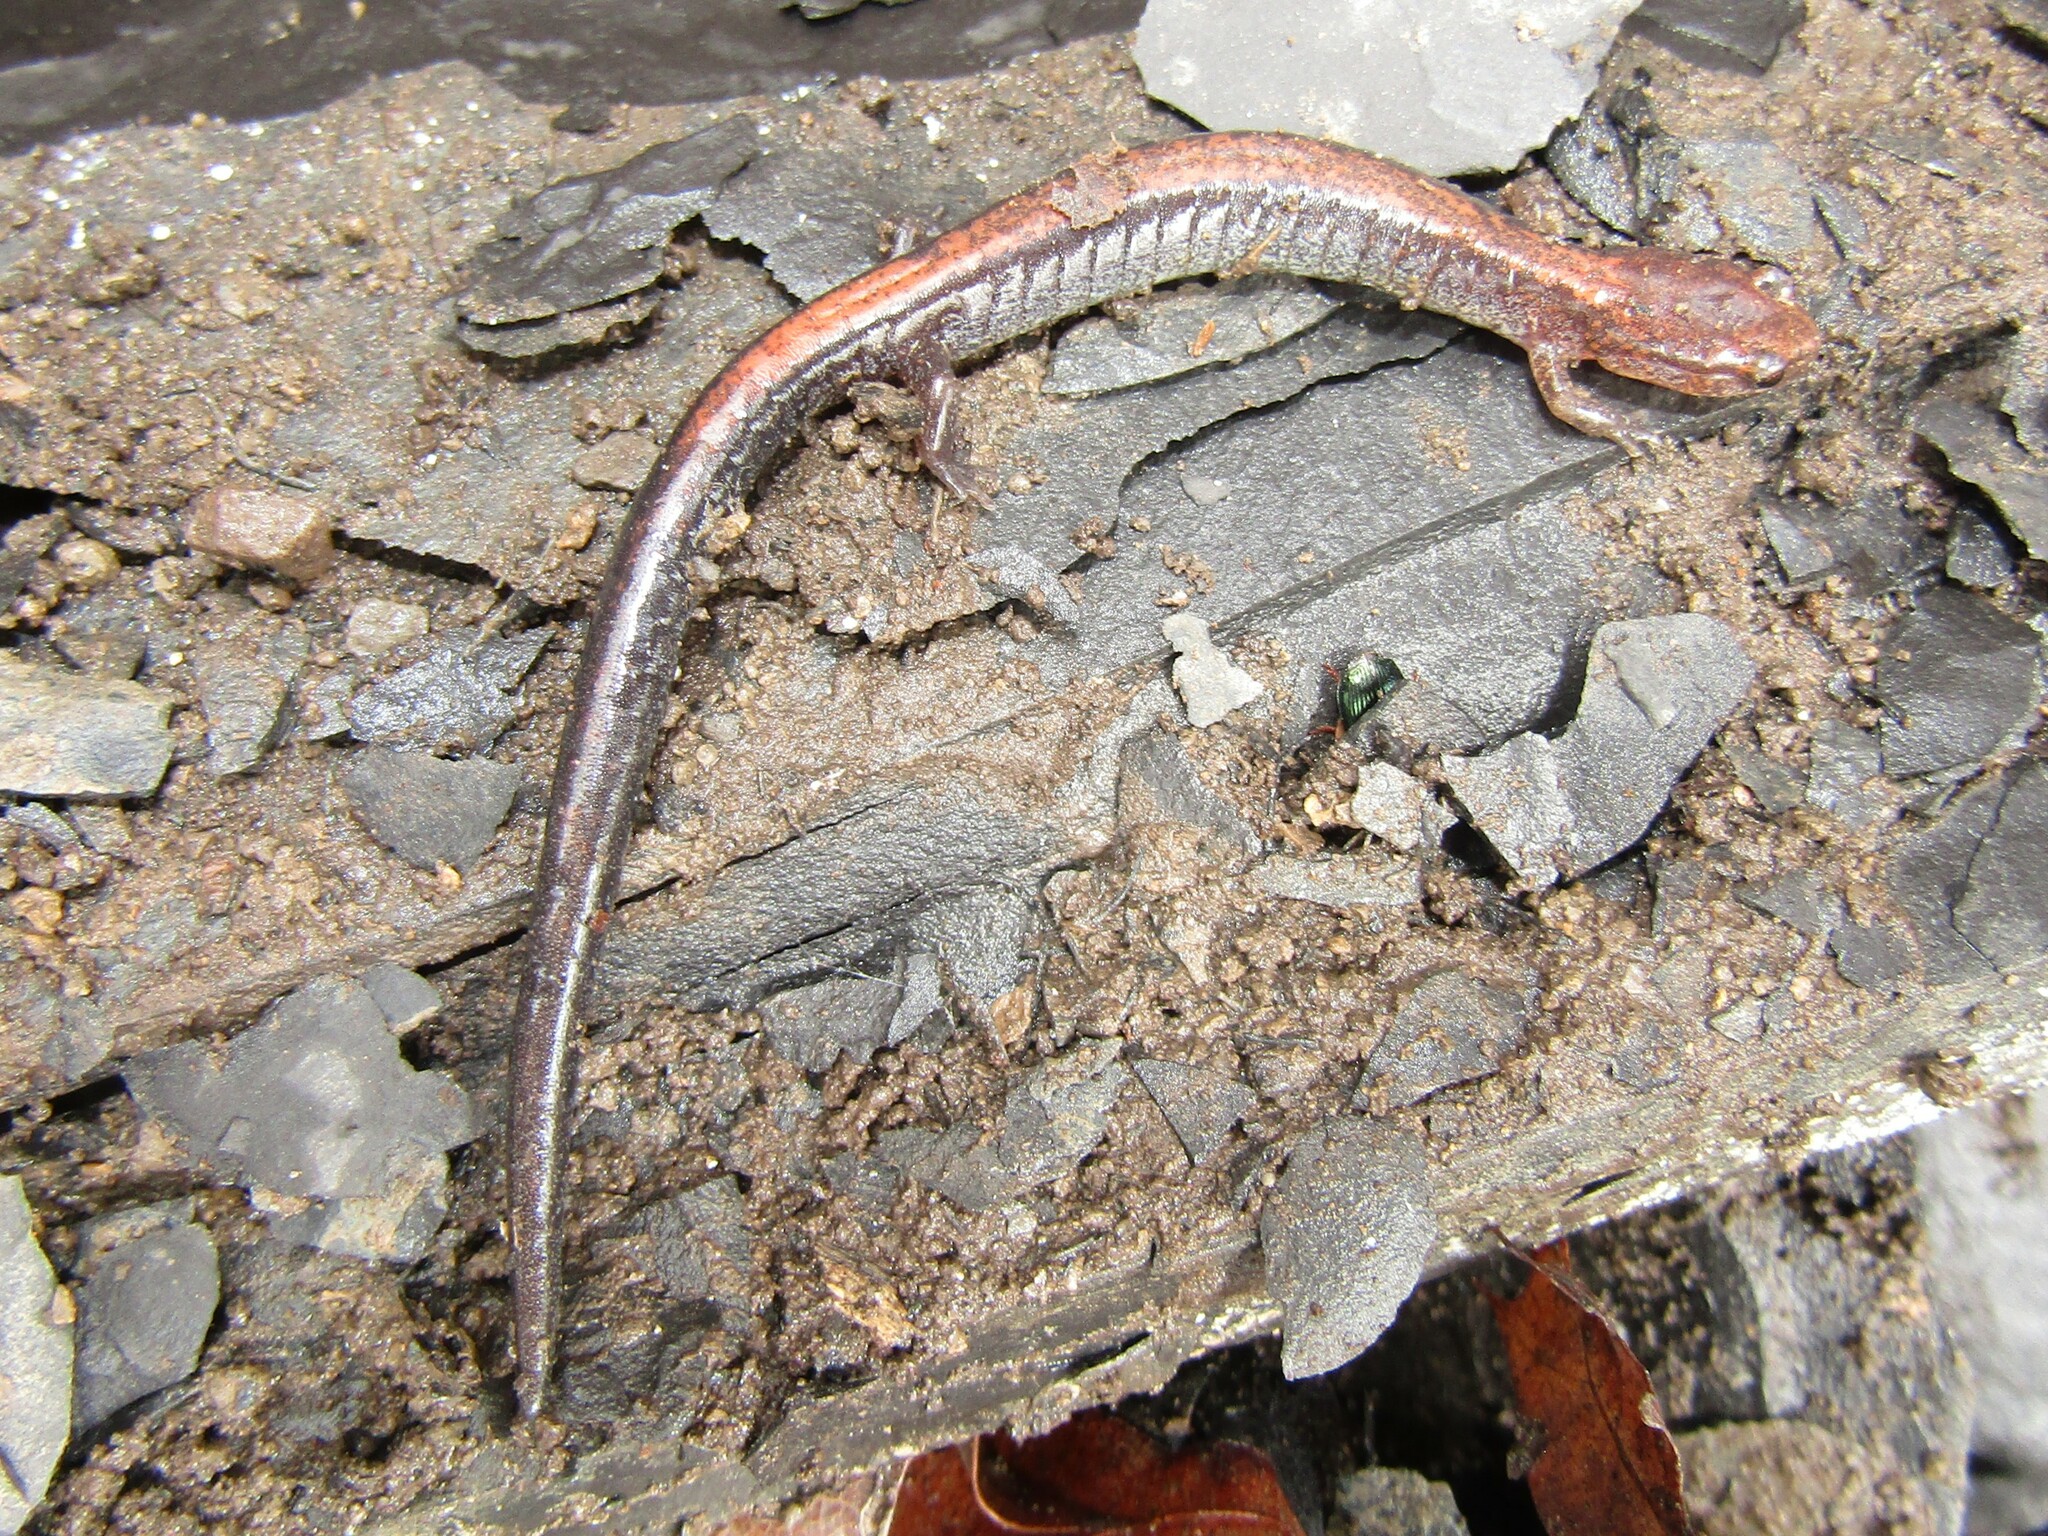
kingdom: Animalia
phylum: Chordata
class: Amphibia
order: Caudata
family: Plethodontidae
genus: Plethodon
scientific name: Plethodon cinereus
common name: Redback salamander
